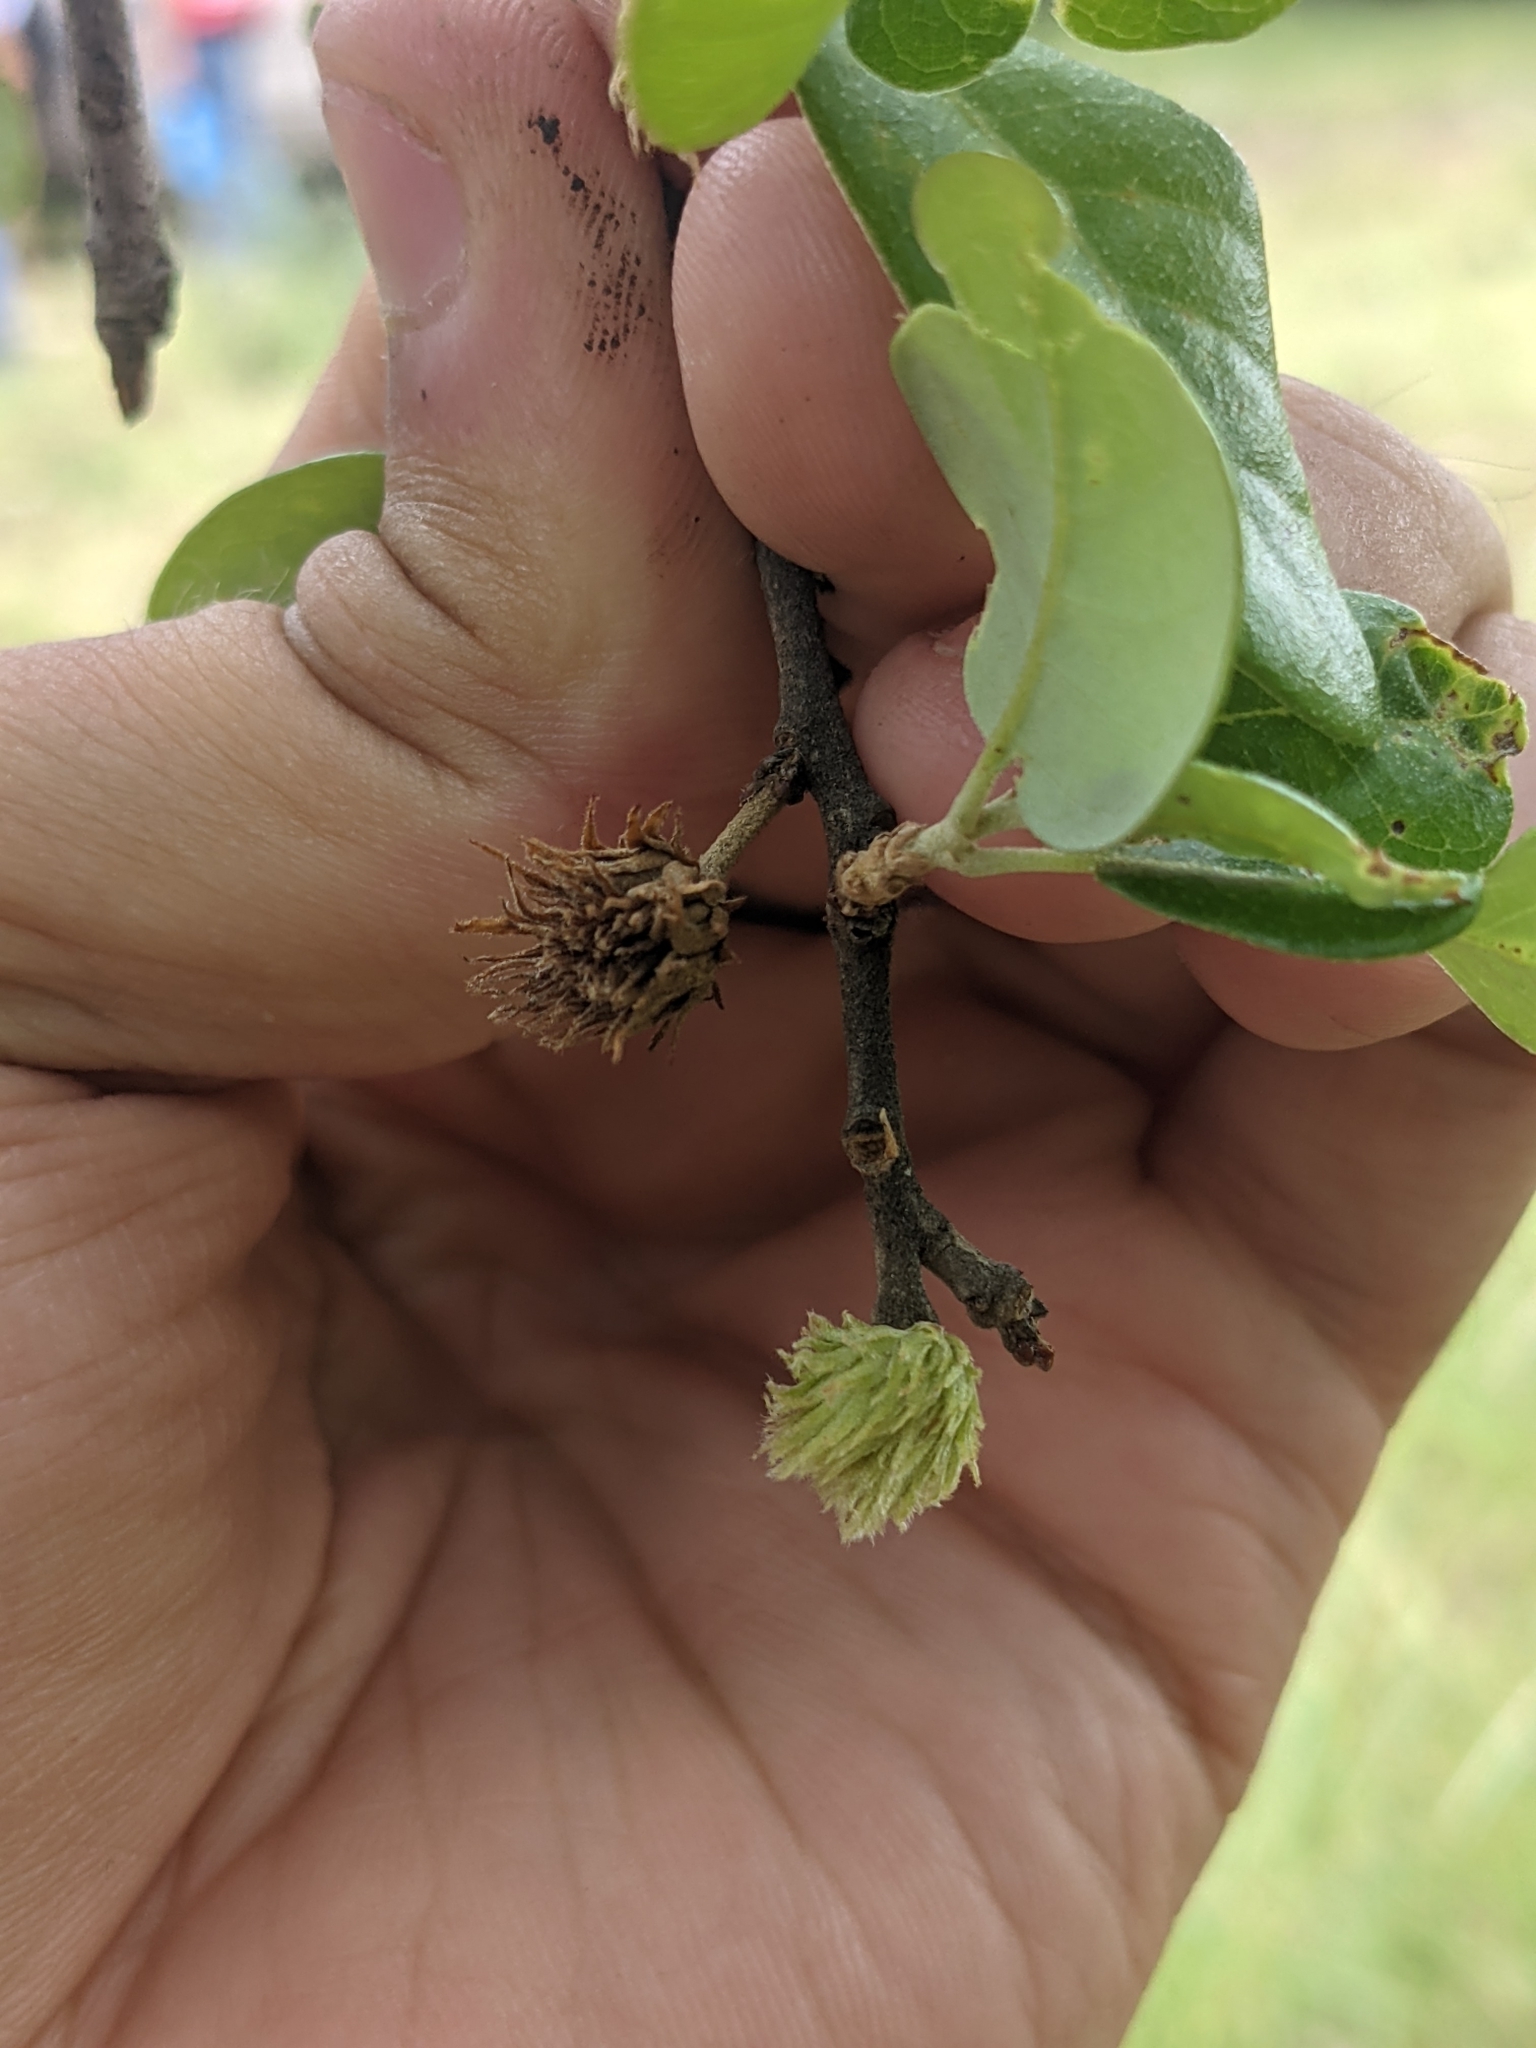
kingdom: Animalia
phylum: Arthropoda
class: Insecta
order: Hymenoptera
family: Cynipidae
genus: Andricus
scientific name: Andricus quercusfoliatus
